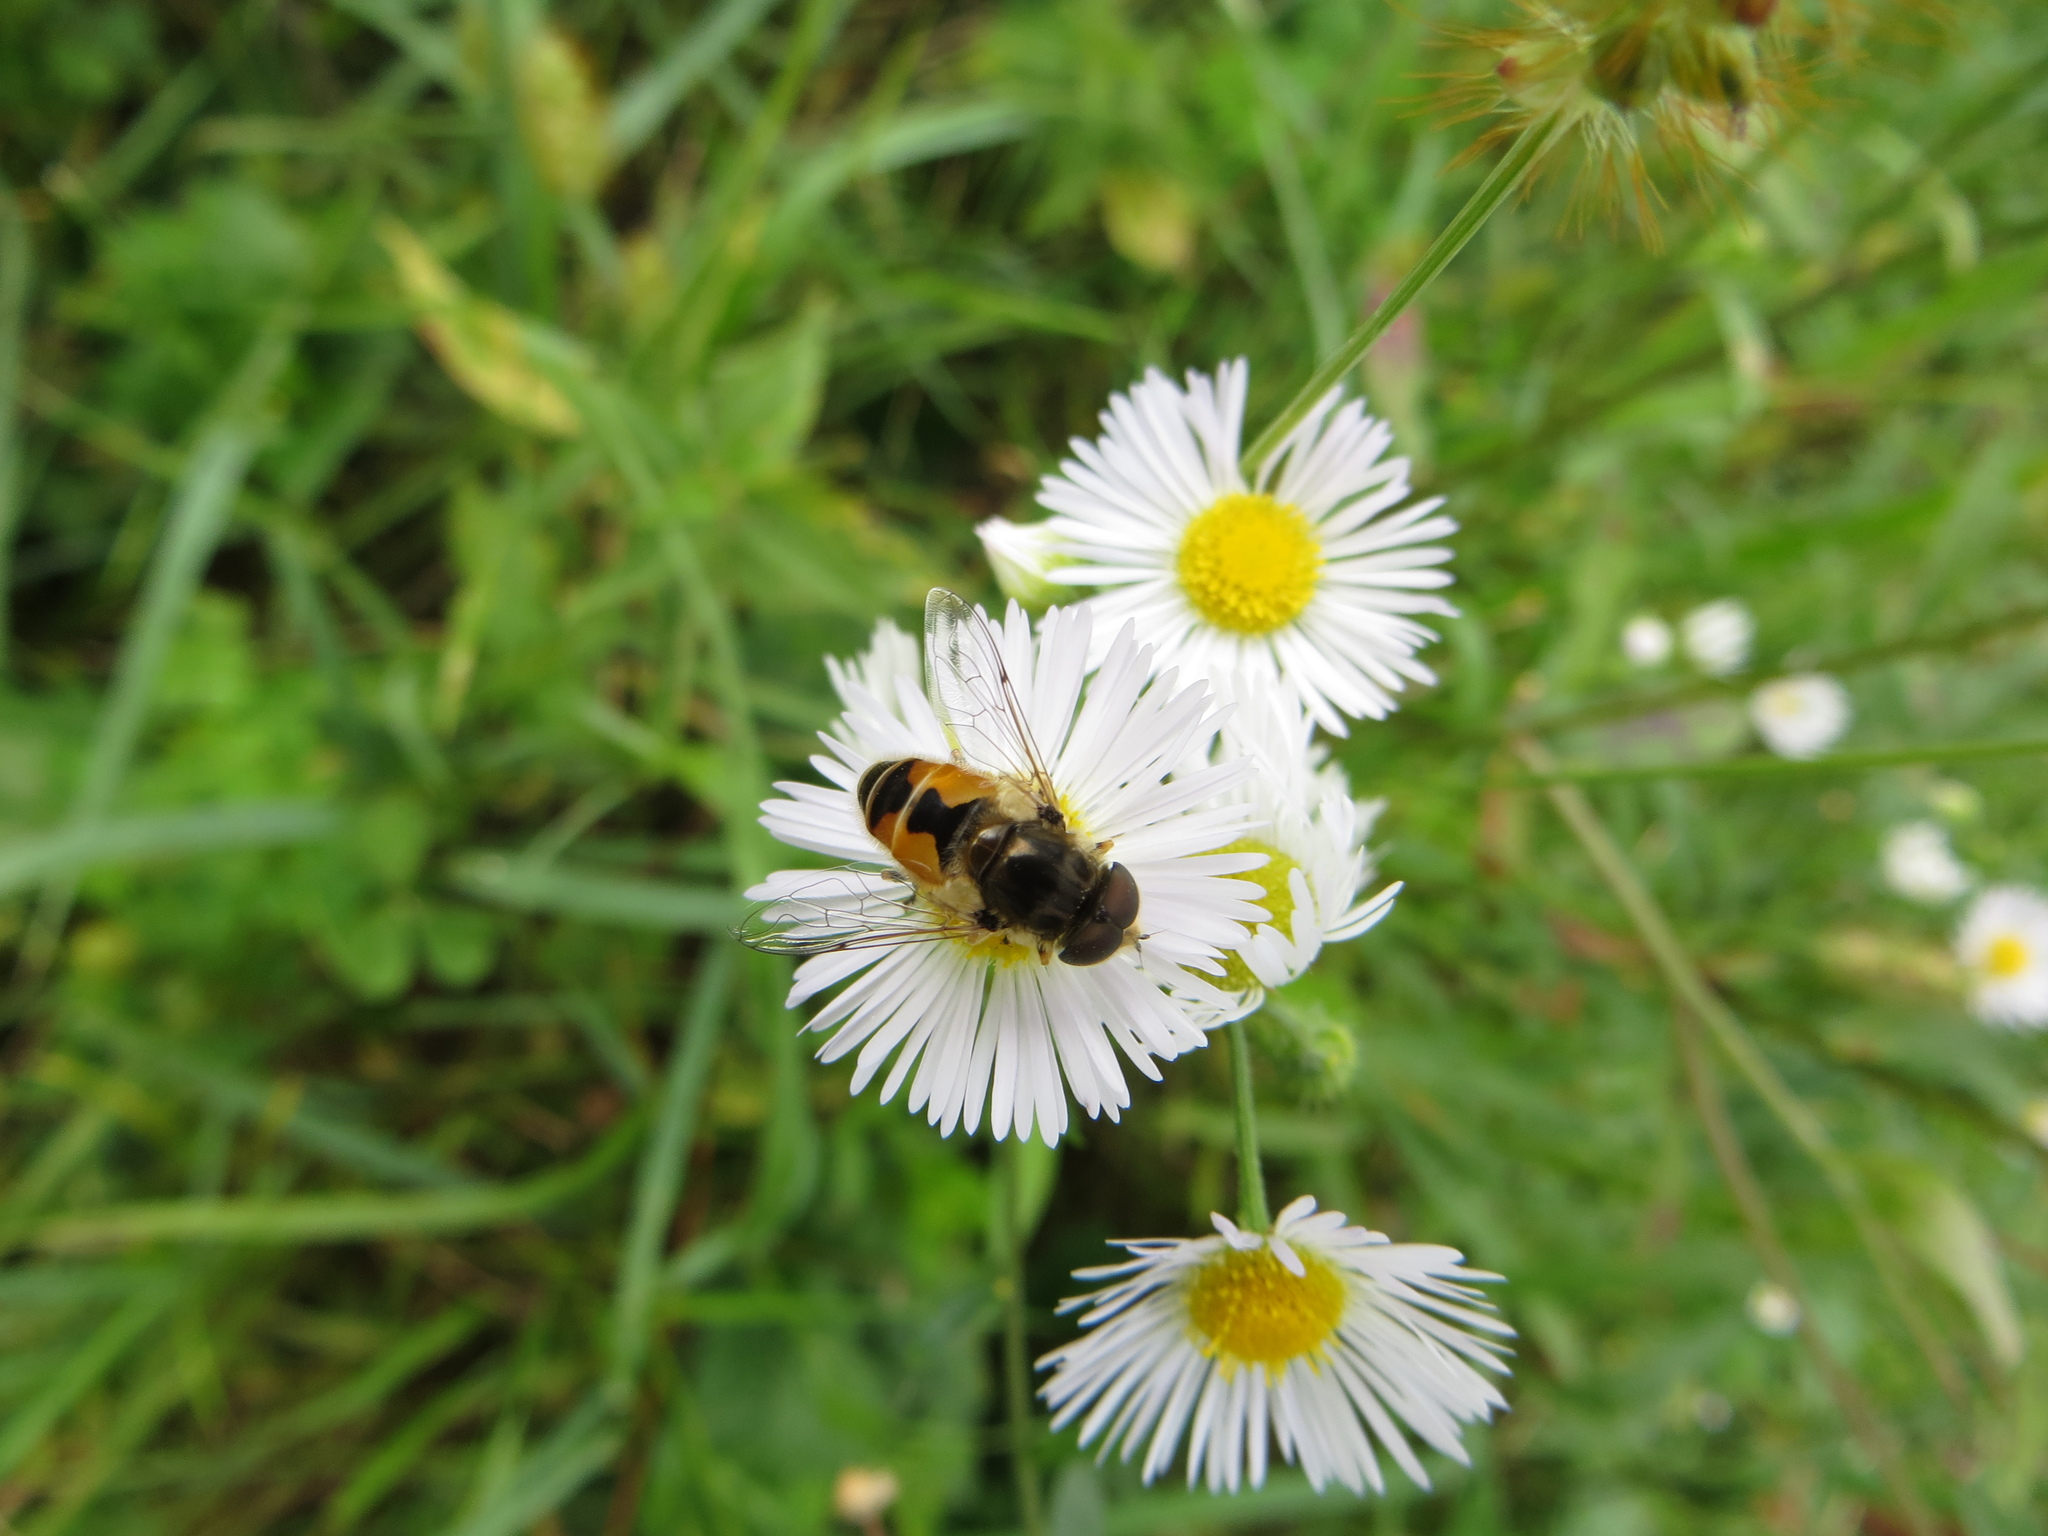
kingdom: Animalia
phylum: Arthropoda
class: Insecta
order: Diptera
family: Syrphidae
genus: Eristalis
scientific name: Eristalis arbustorum
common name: Hover fly
